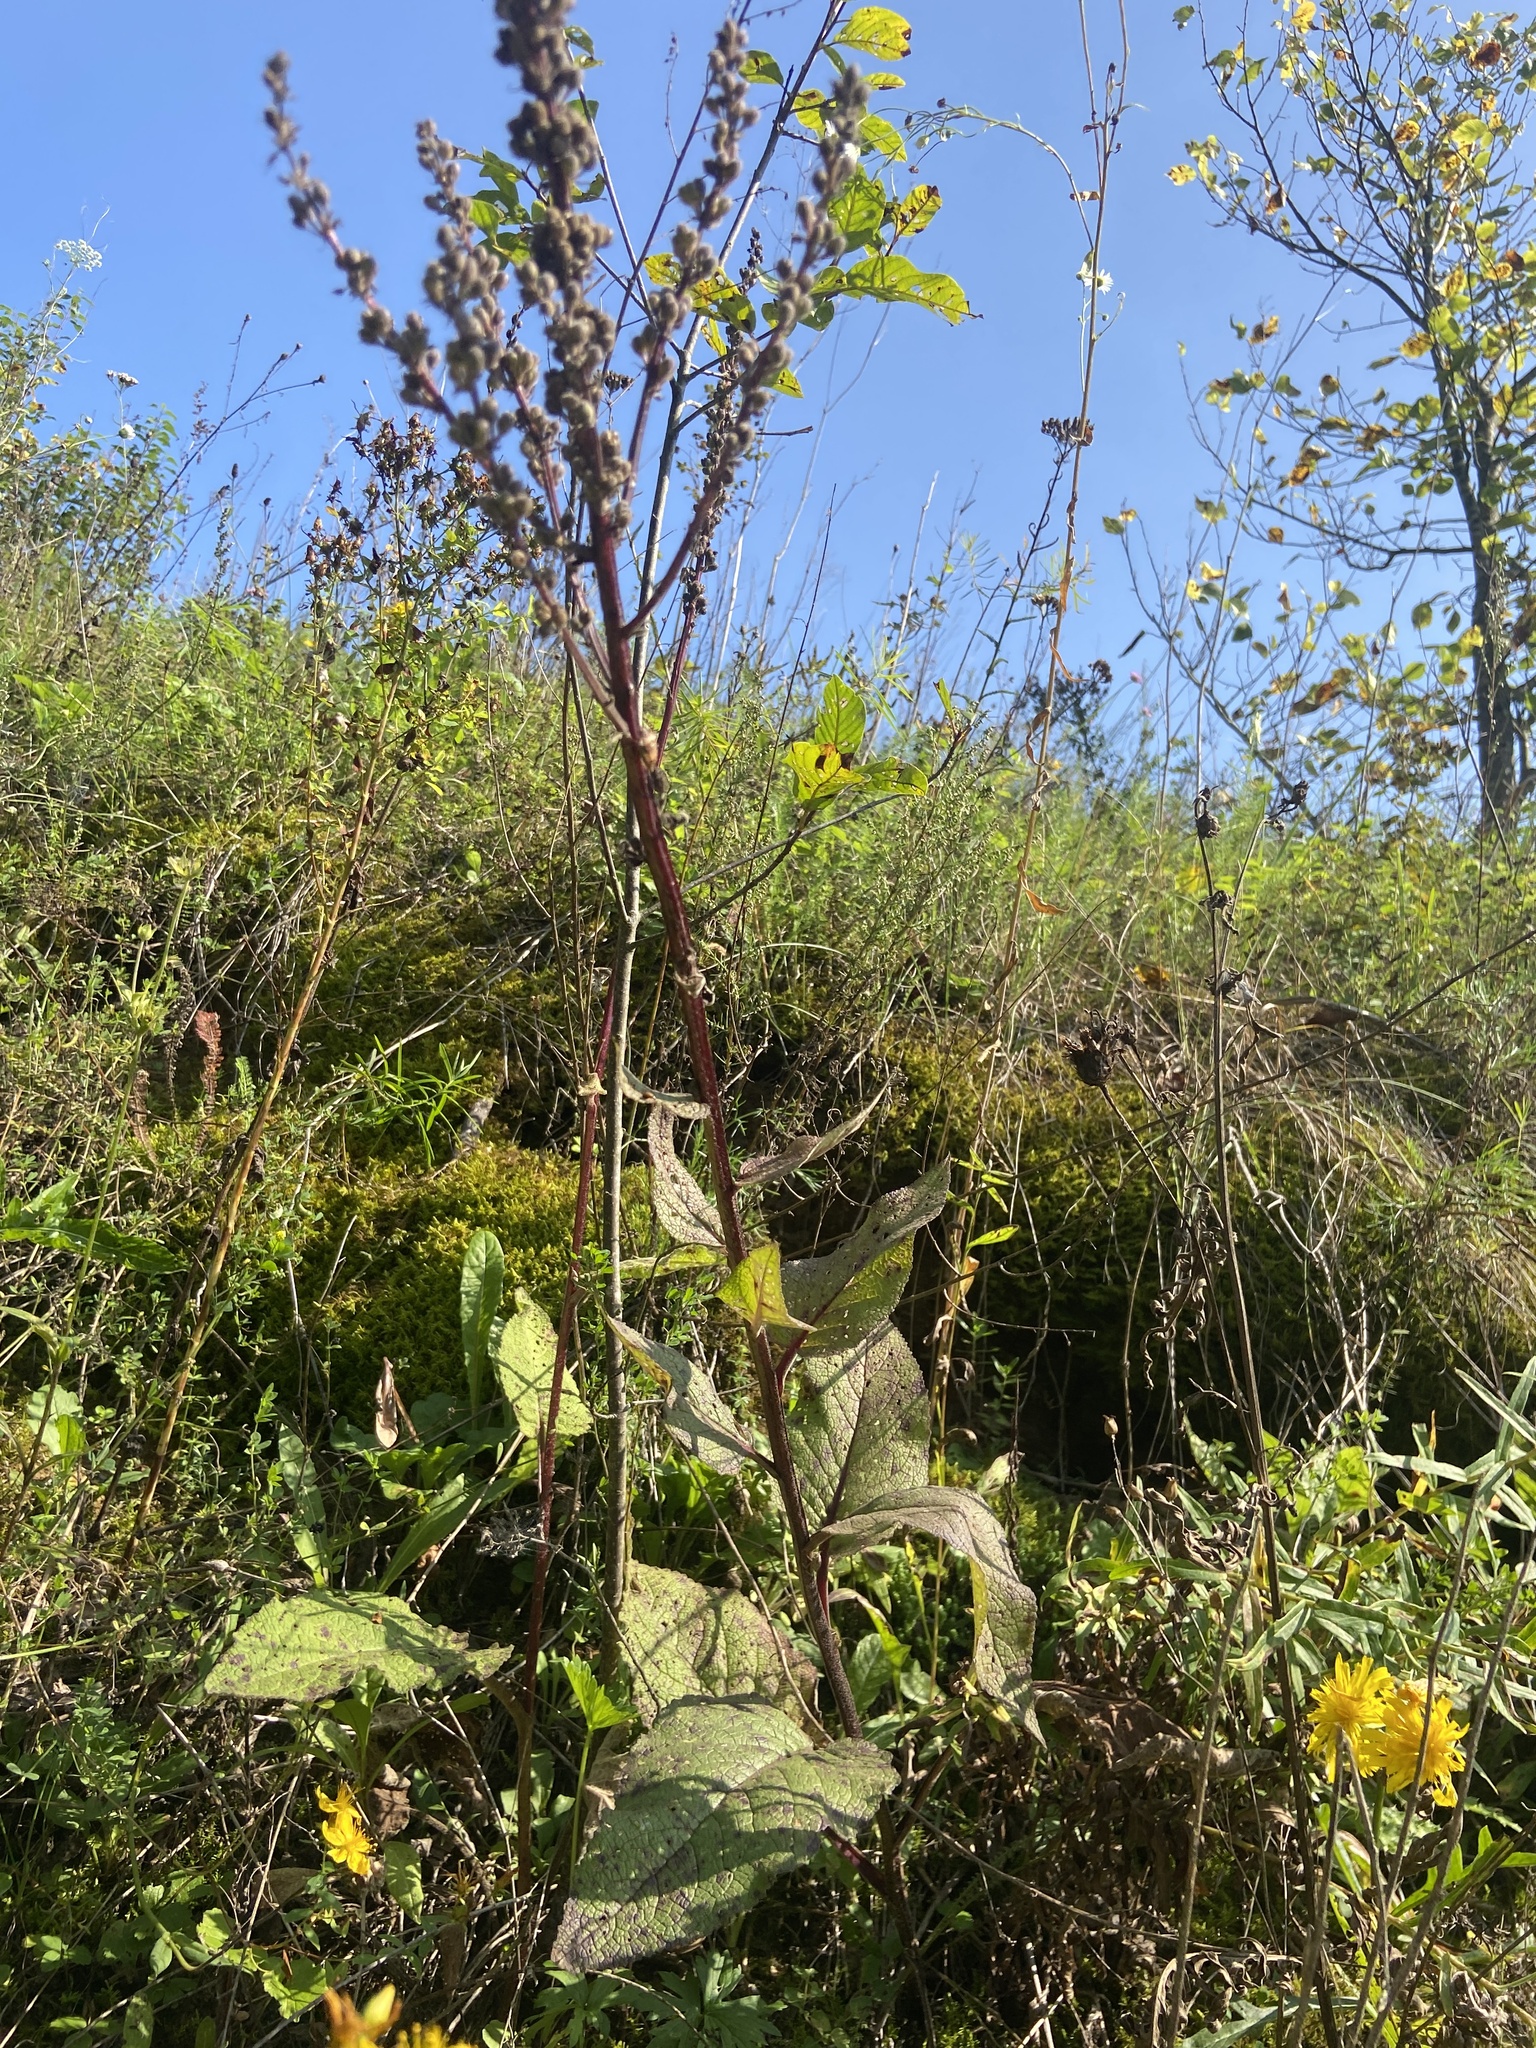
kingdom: Plantae
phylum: Tracheophyta
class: Magnoliopsida
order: Lamiales
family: Scrophulariaceae
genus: Verbascum
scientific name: Verbascum nigrum
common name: Dark mullein
